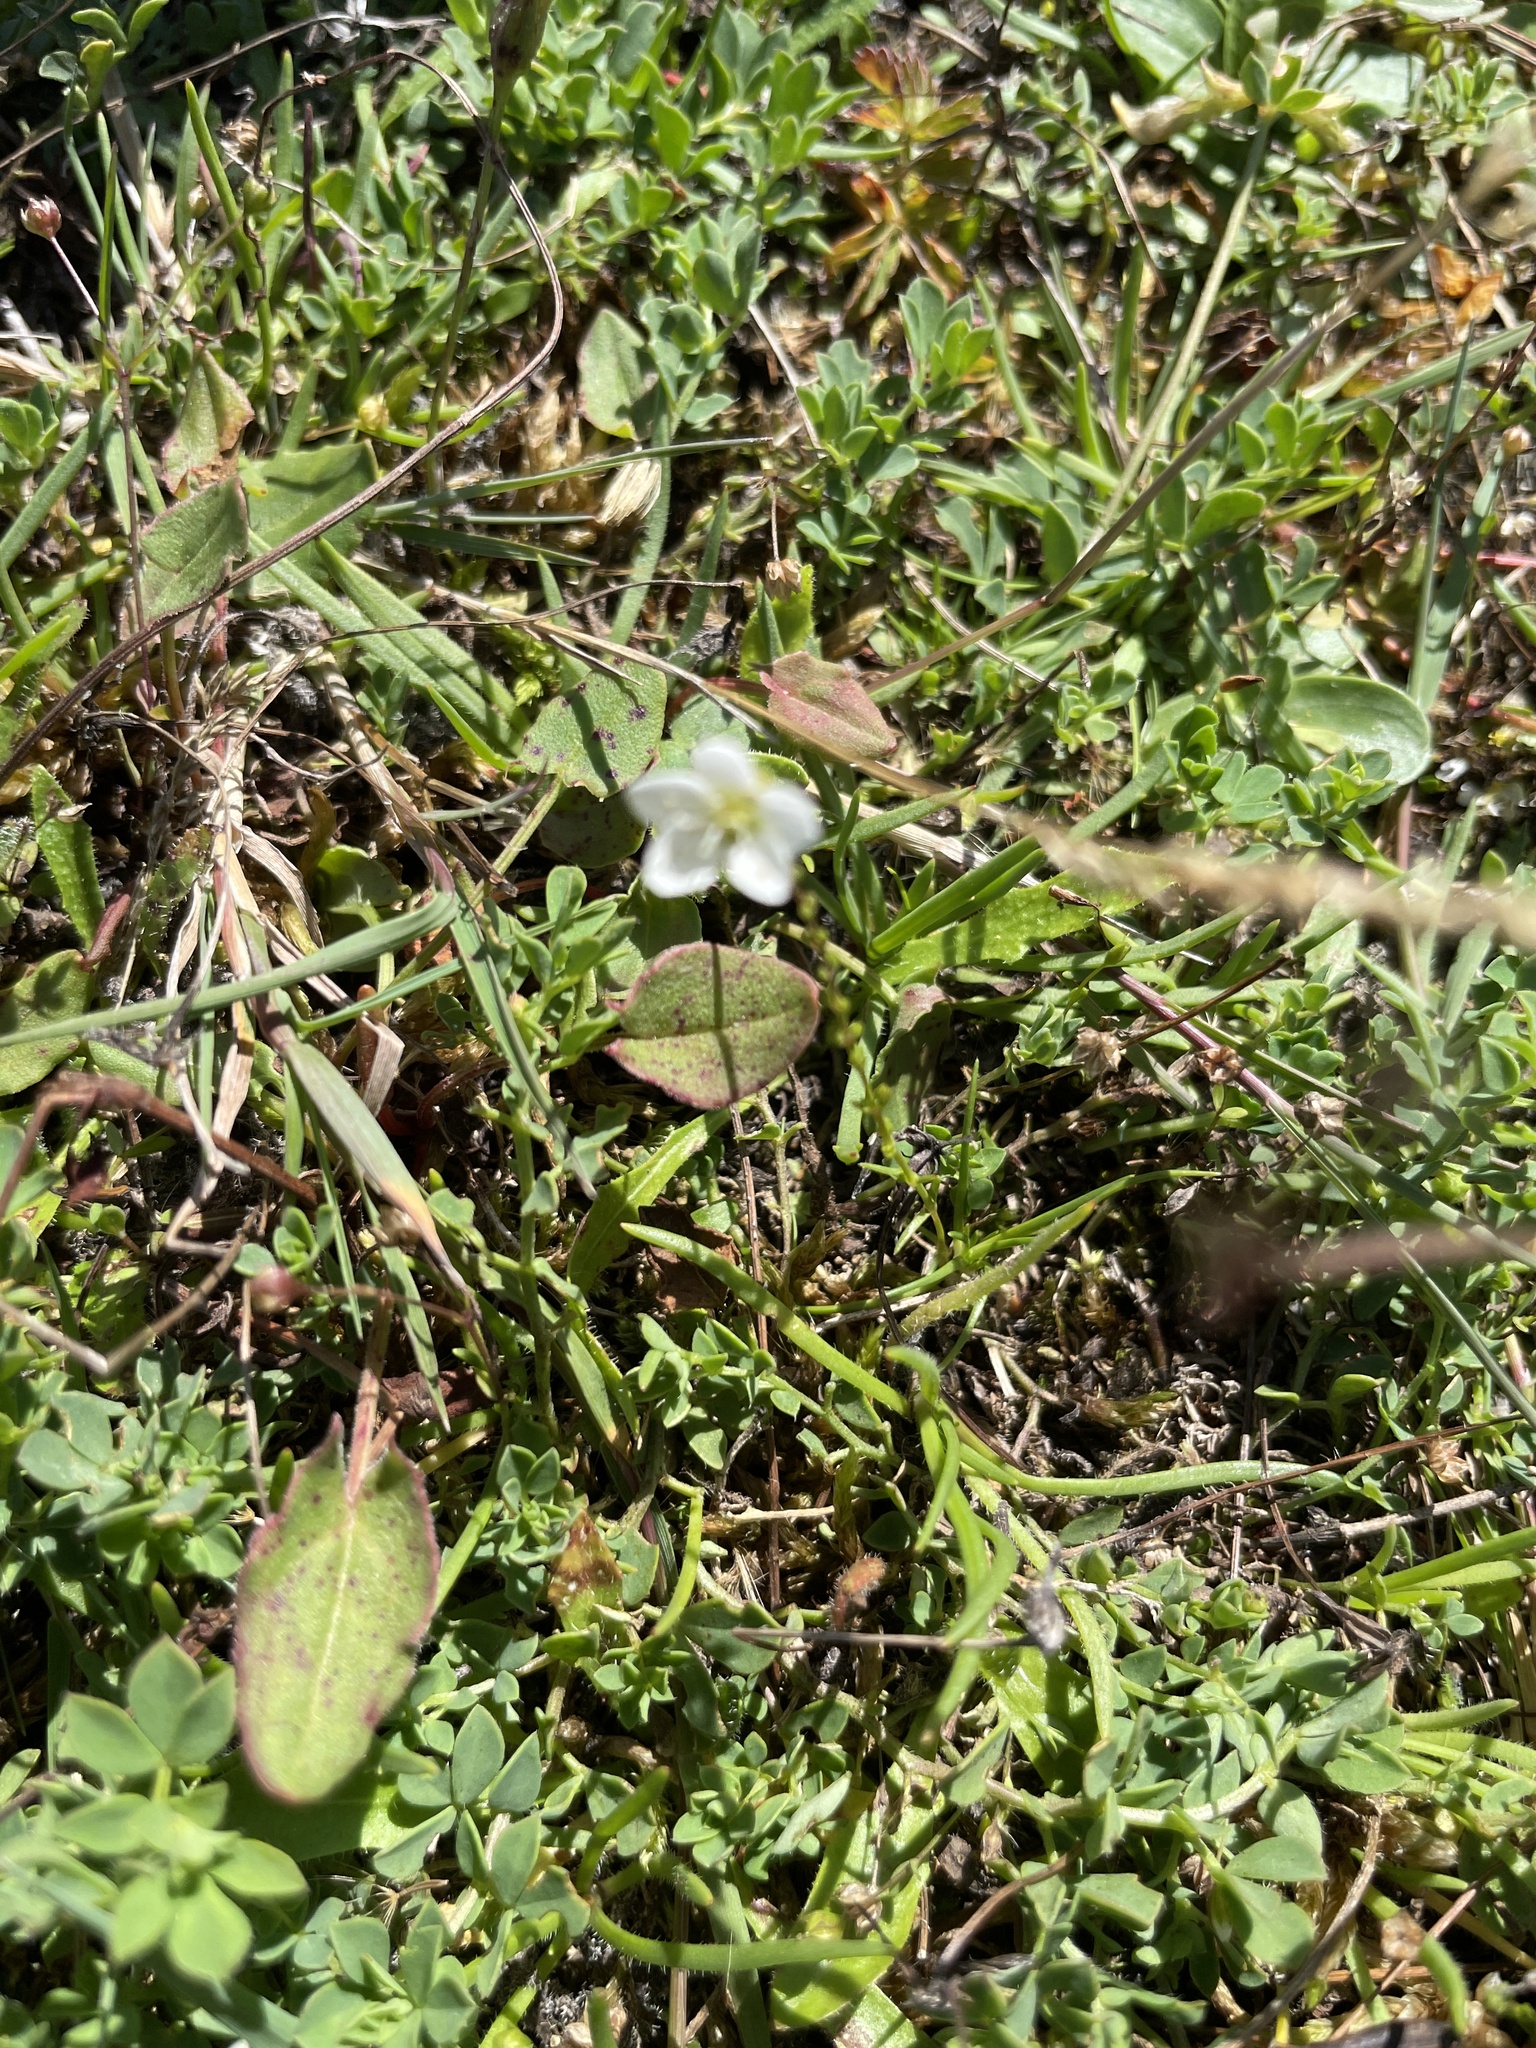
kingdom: Plantae
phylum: Tracheophyta
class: Magnoliopsida
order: Caryophyllales
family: Caryophyllaceae
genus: Sagina
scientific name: Sagina nodosa
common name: Knotted pearlwort
